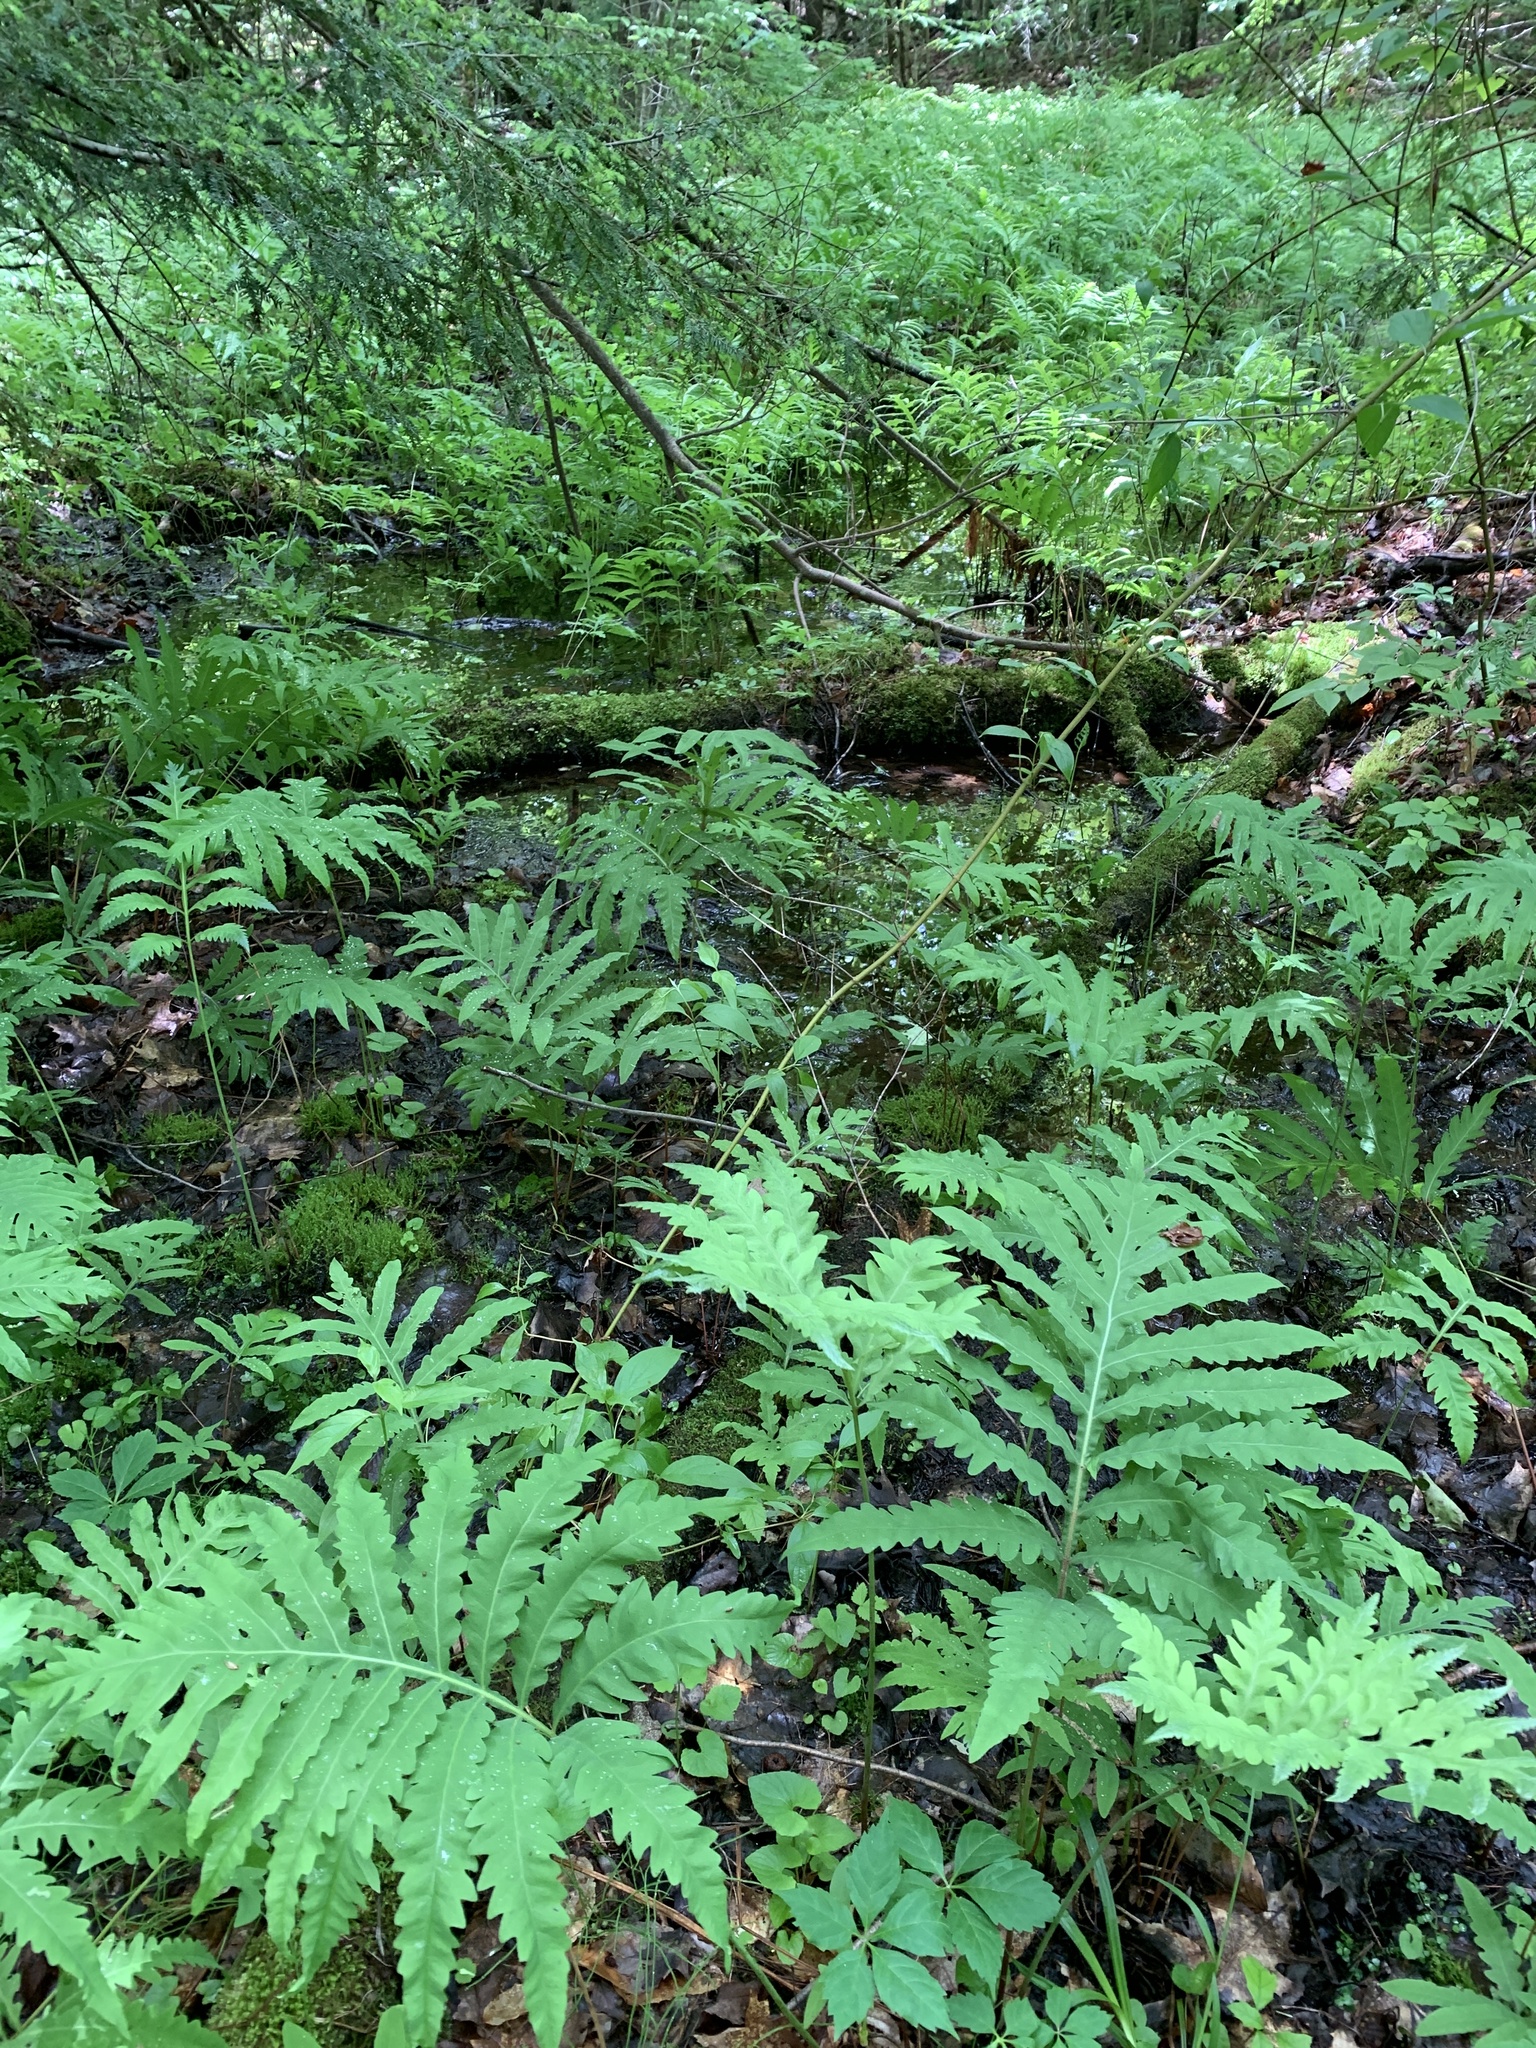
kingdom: Plantae
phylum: Tracheophyta
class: Polypodiopsida
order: Polypodiales
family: Onocleaceae
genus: Onoclea
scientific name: Onoclea sensibilis
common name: Sensitive fern
